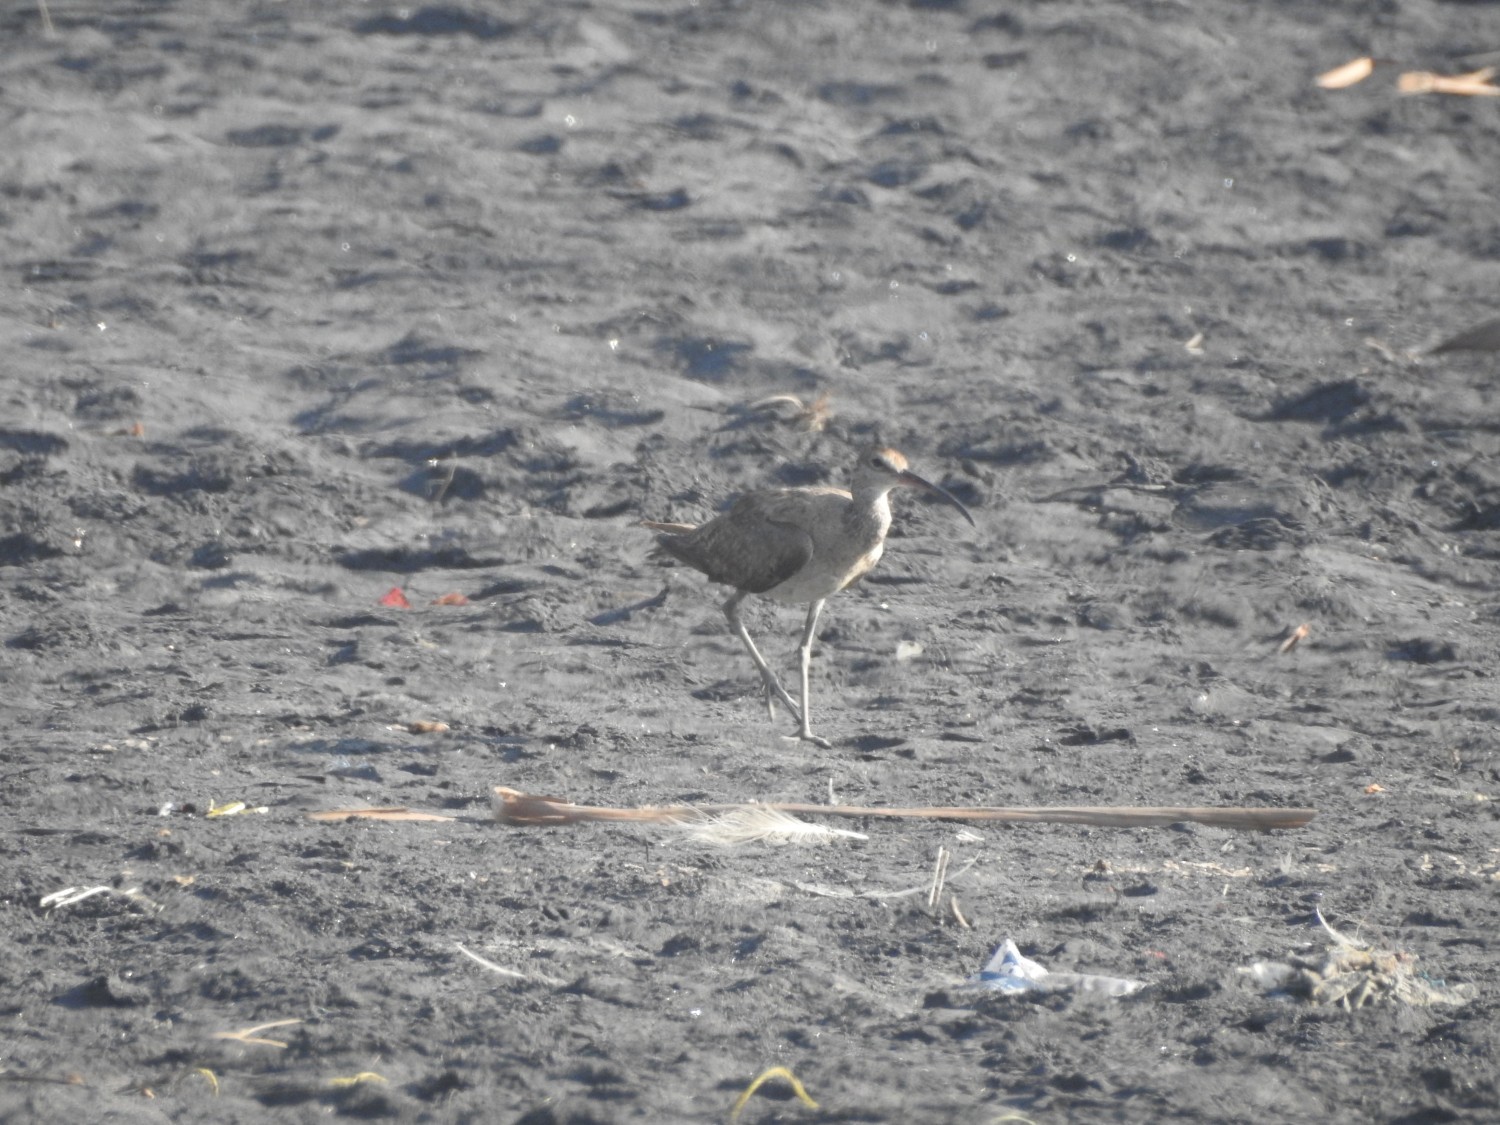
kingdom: Animalia
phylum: Chordata
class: Aves
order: Charadriiformes
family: Scolopacidae
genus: Numenius
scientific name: Numenius phaeopus
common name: Whimbrel
